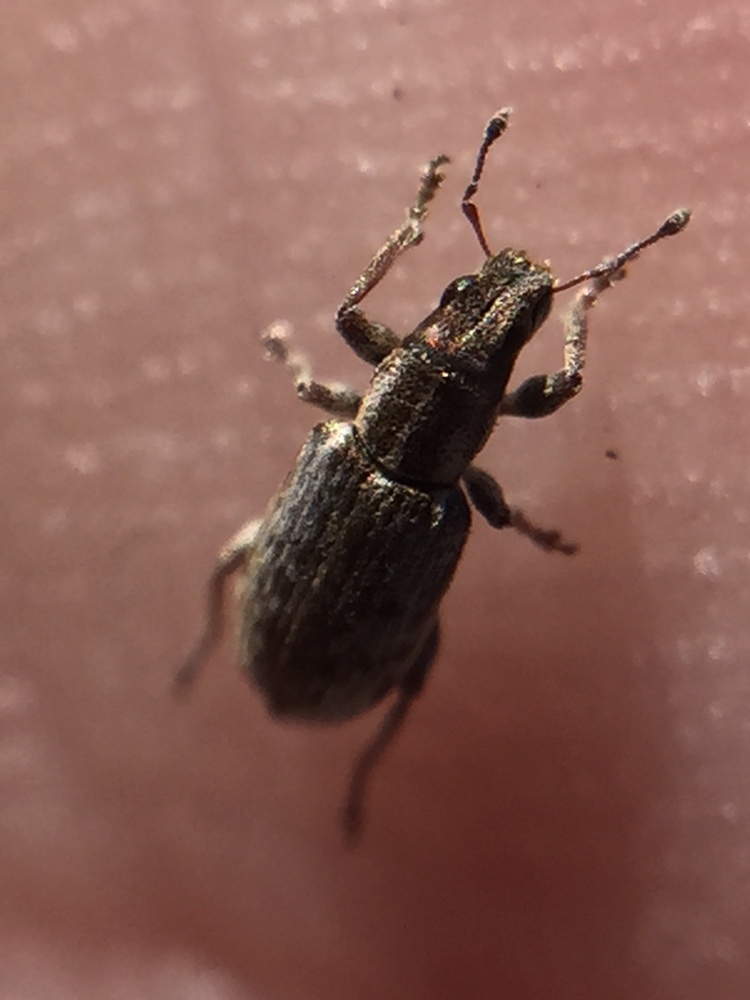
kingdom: Animalia
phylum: Arthropoda
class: Insecta
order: Coleoptera
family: Curculionidae
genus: Sitona
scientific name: Sitona discoideus
